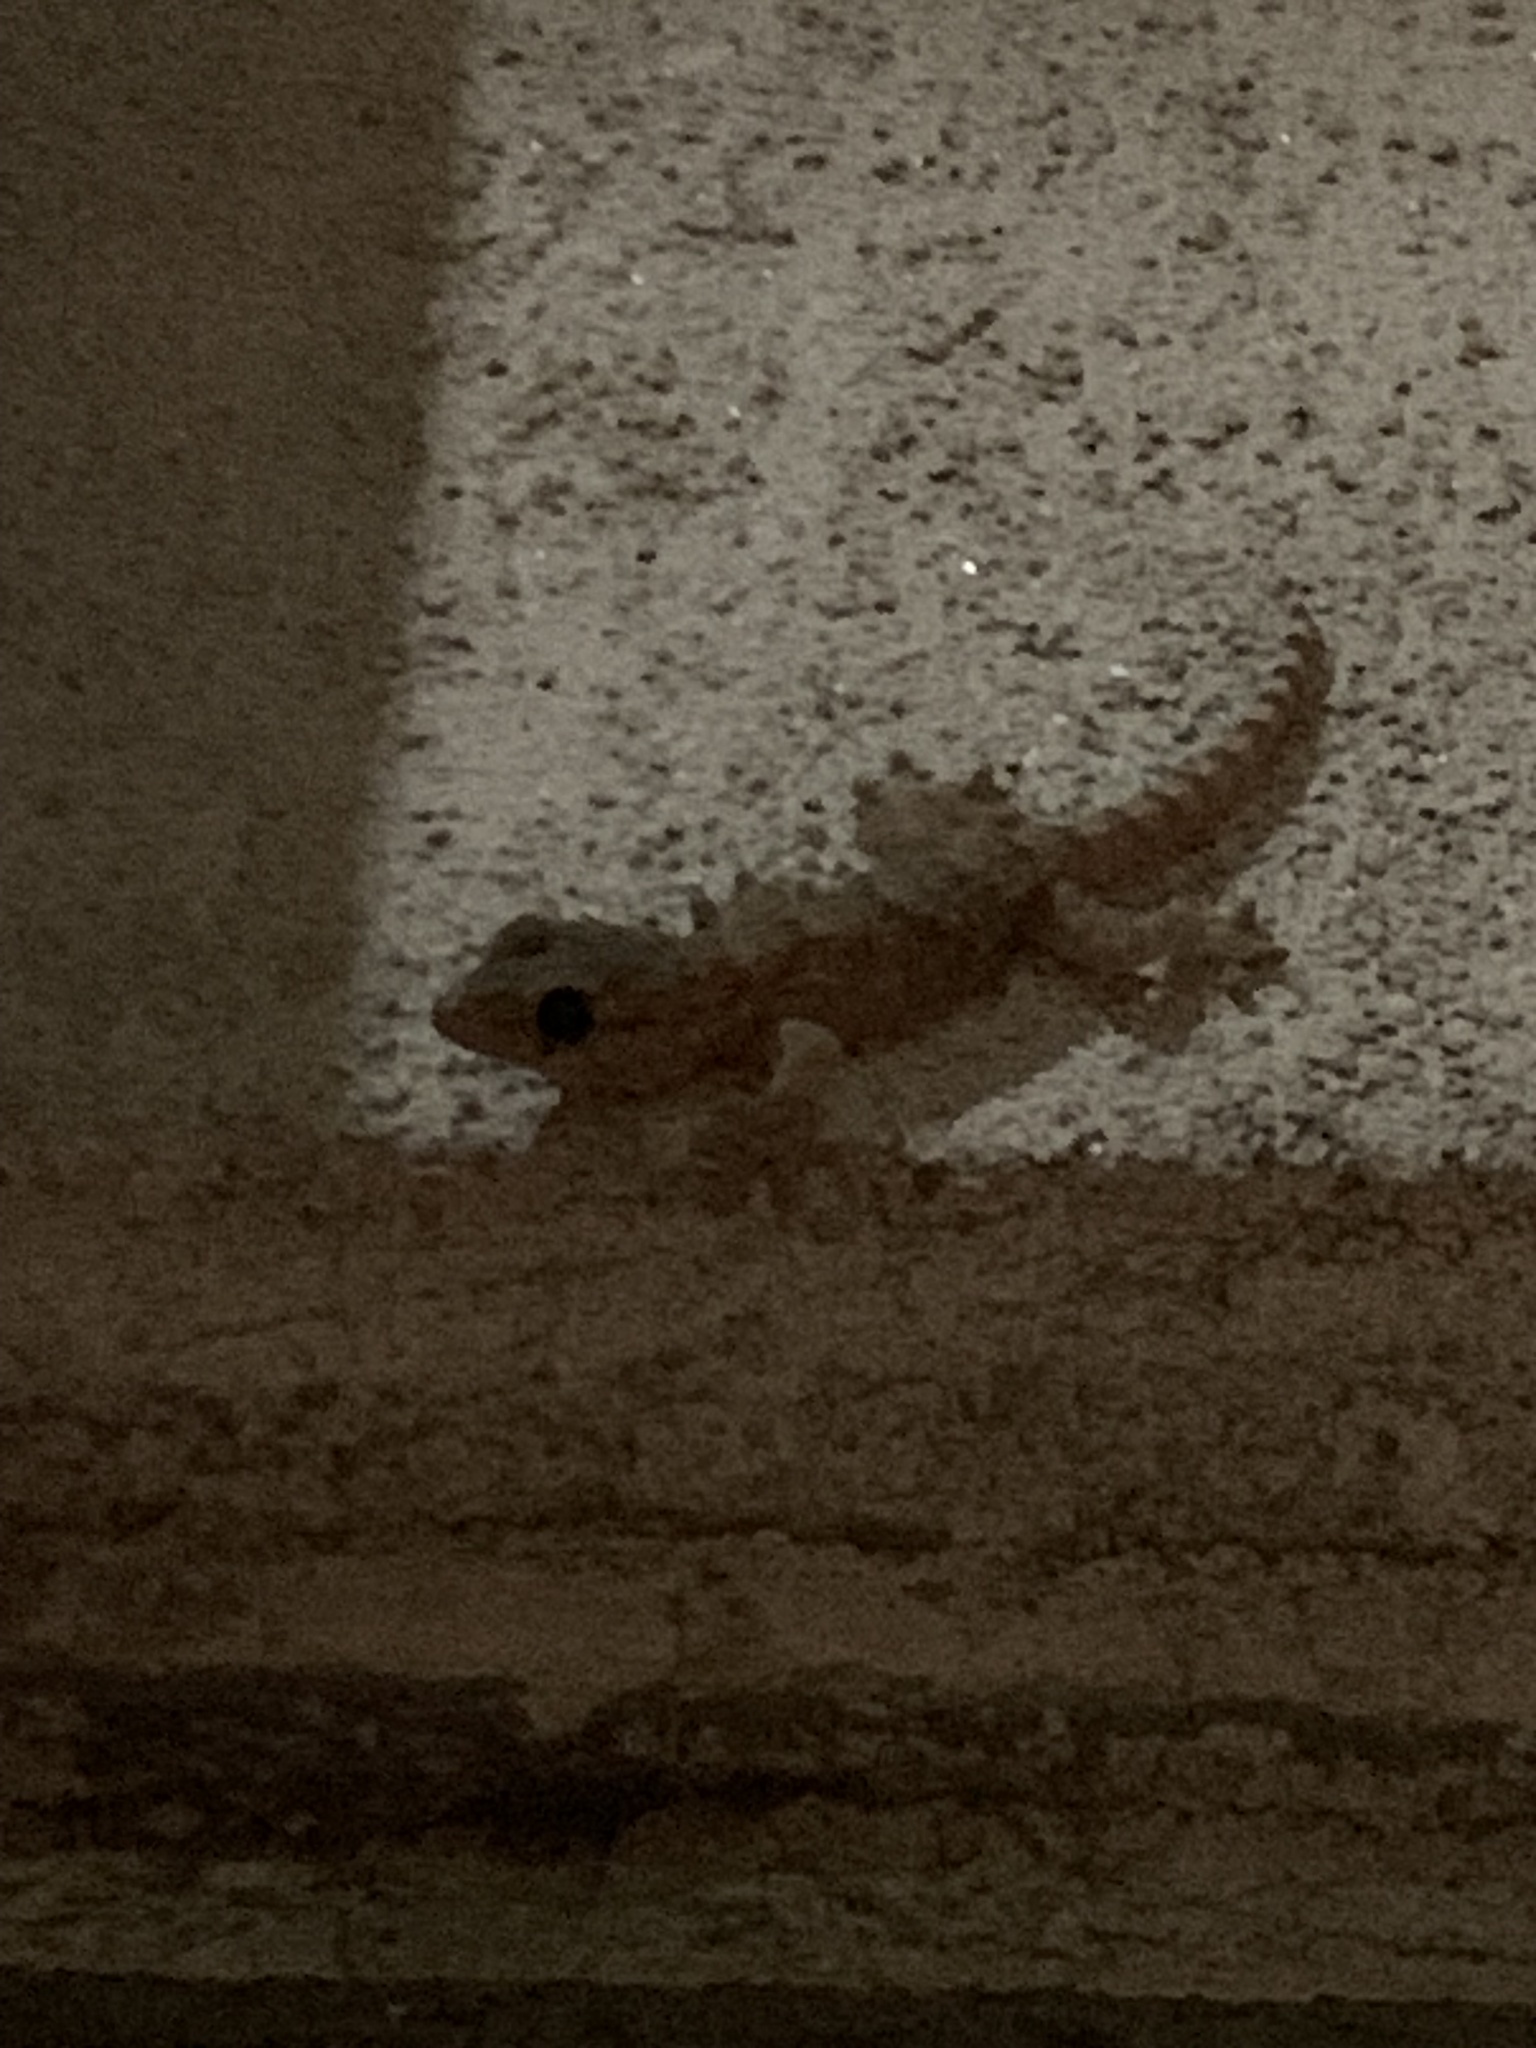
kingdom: Animalia
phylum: Chordata
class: Squamata
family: Phyllodactylidae
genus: Tarentola
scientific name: Tarentola mauritanica
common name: Moorish gecko
